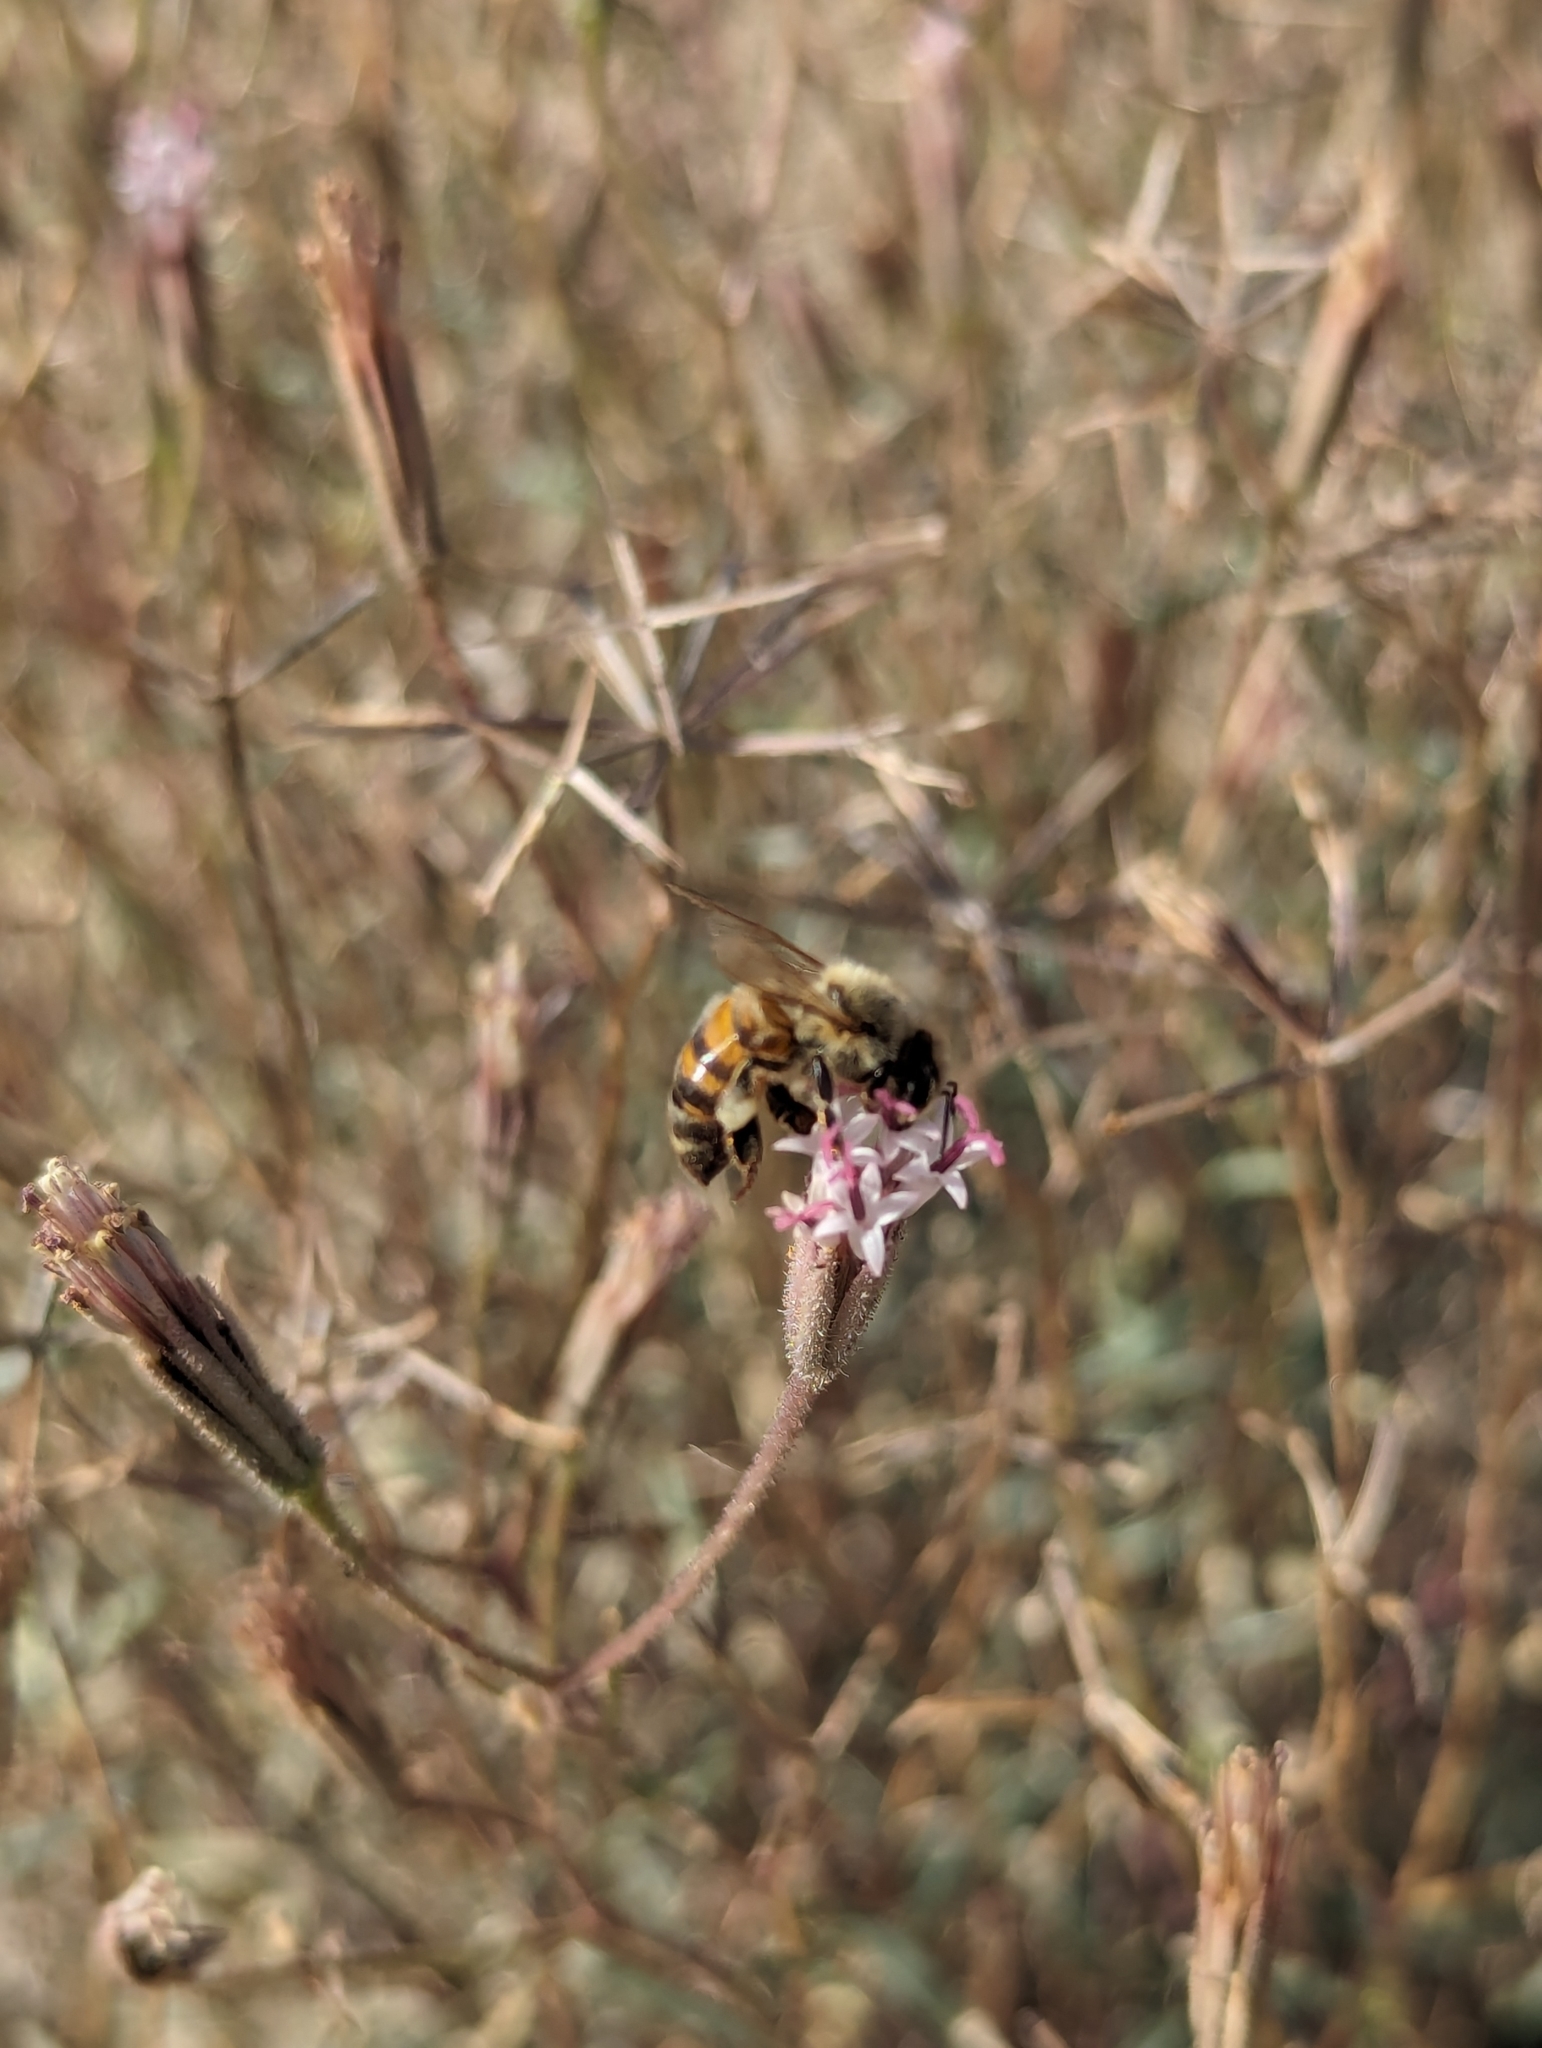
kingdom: Animalia
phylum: Arthropoda
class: Insecta
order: Hymenoptera
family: Apidae
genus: Apis
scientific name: Apis mellifera
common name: Honey bee
